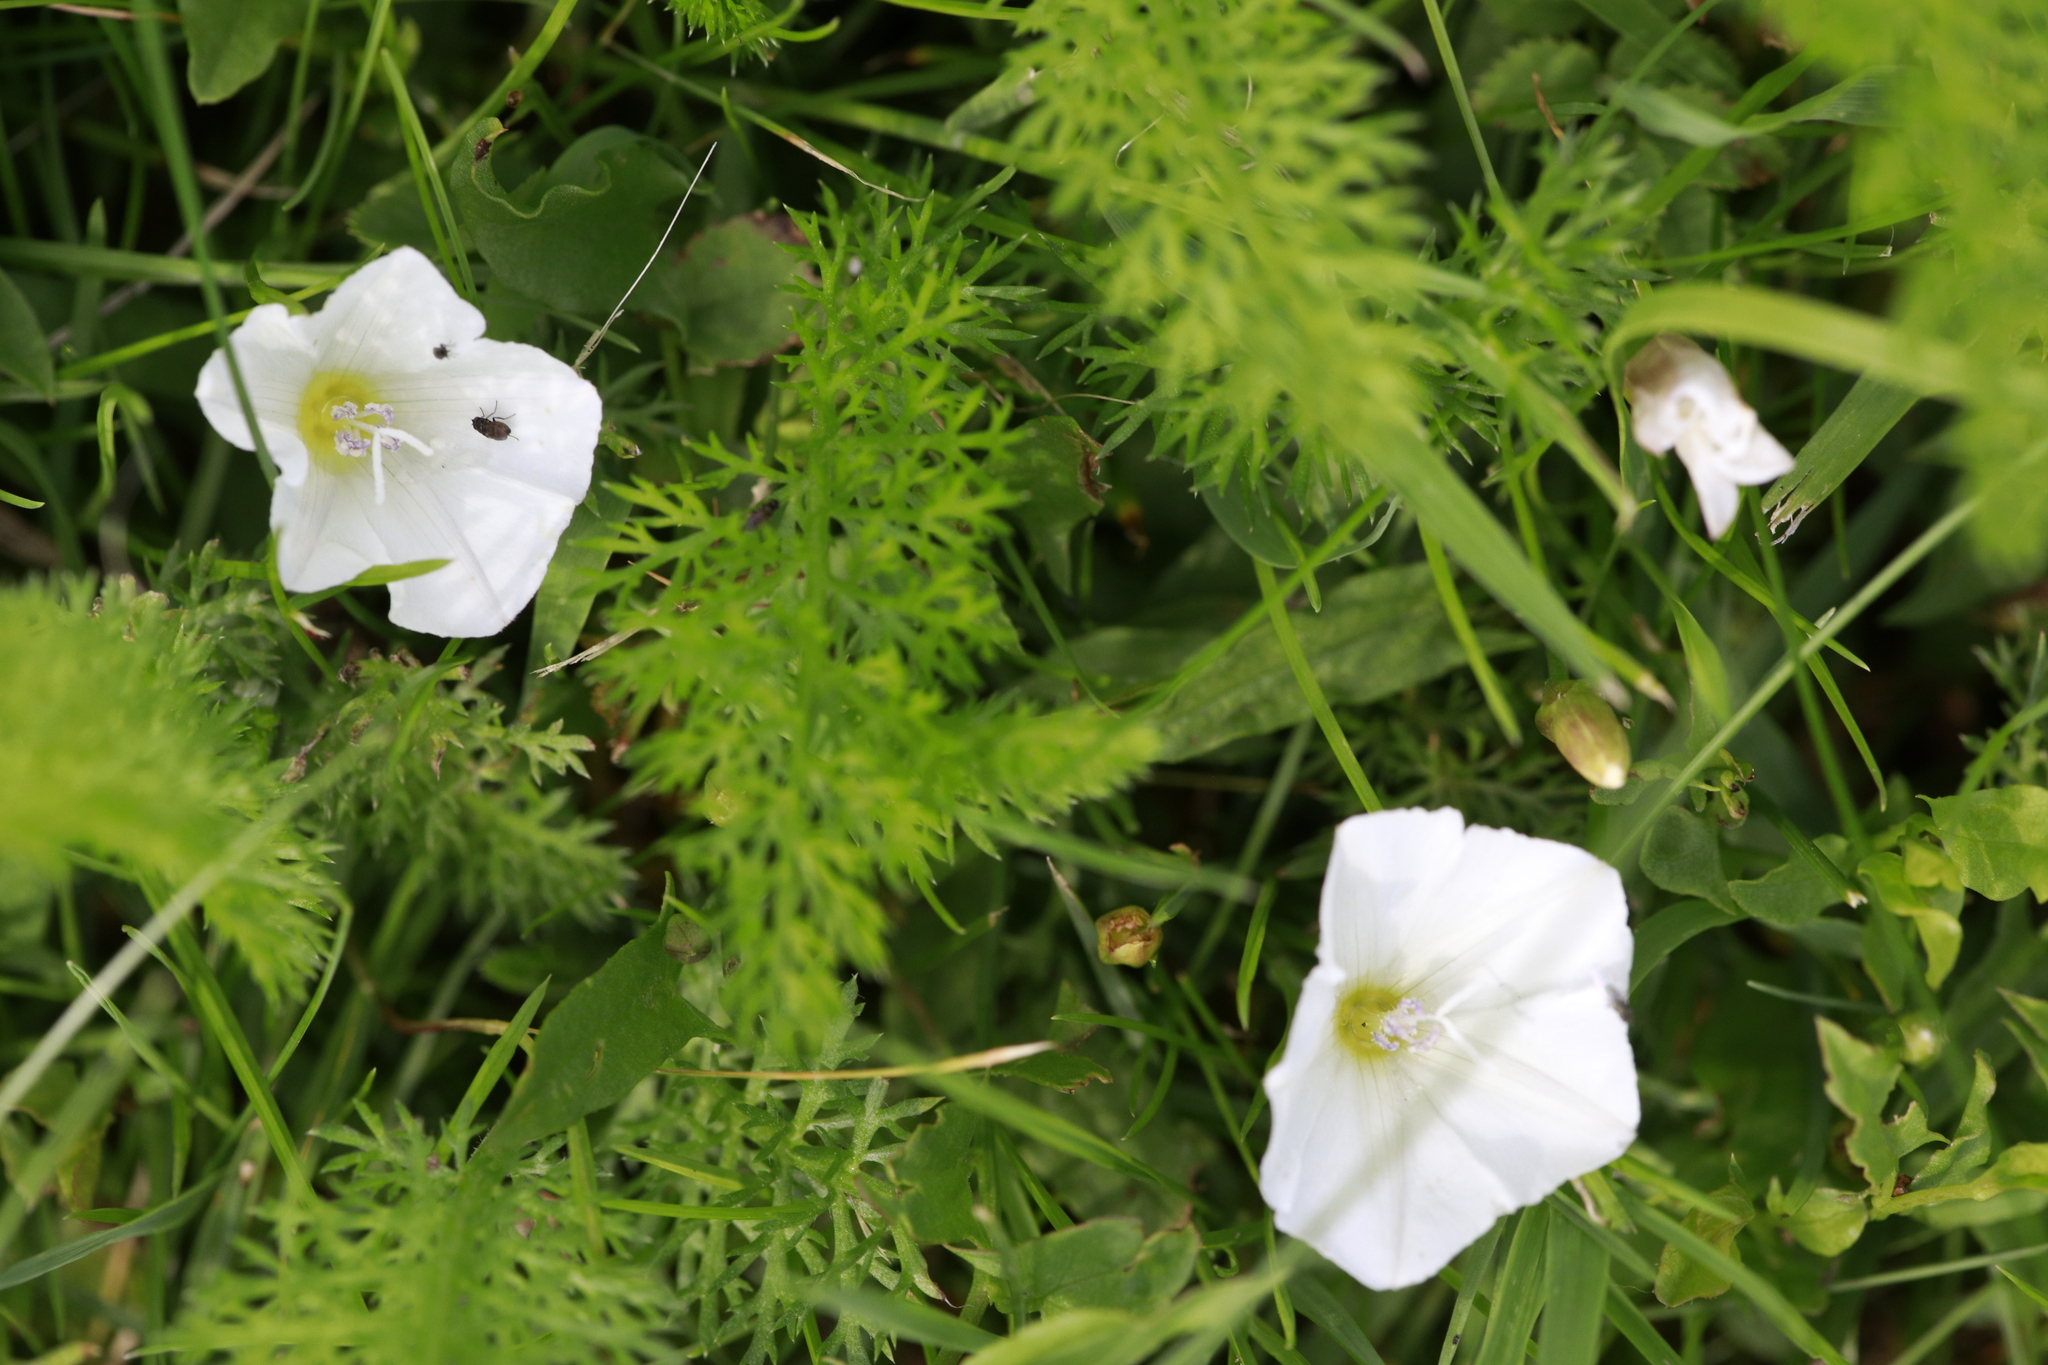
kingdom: Plantae
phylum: Tracheophyta
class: Magnoliopsida
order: Solanales
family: Convolvulaceae
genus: Convolvulus
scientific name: Convolvulus arvensis
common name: Field bindweed
